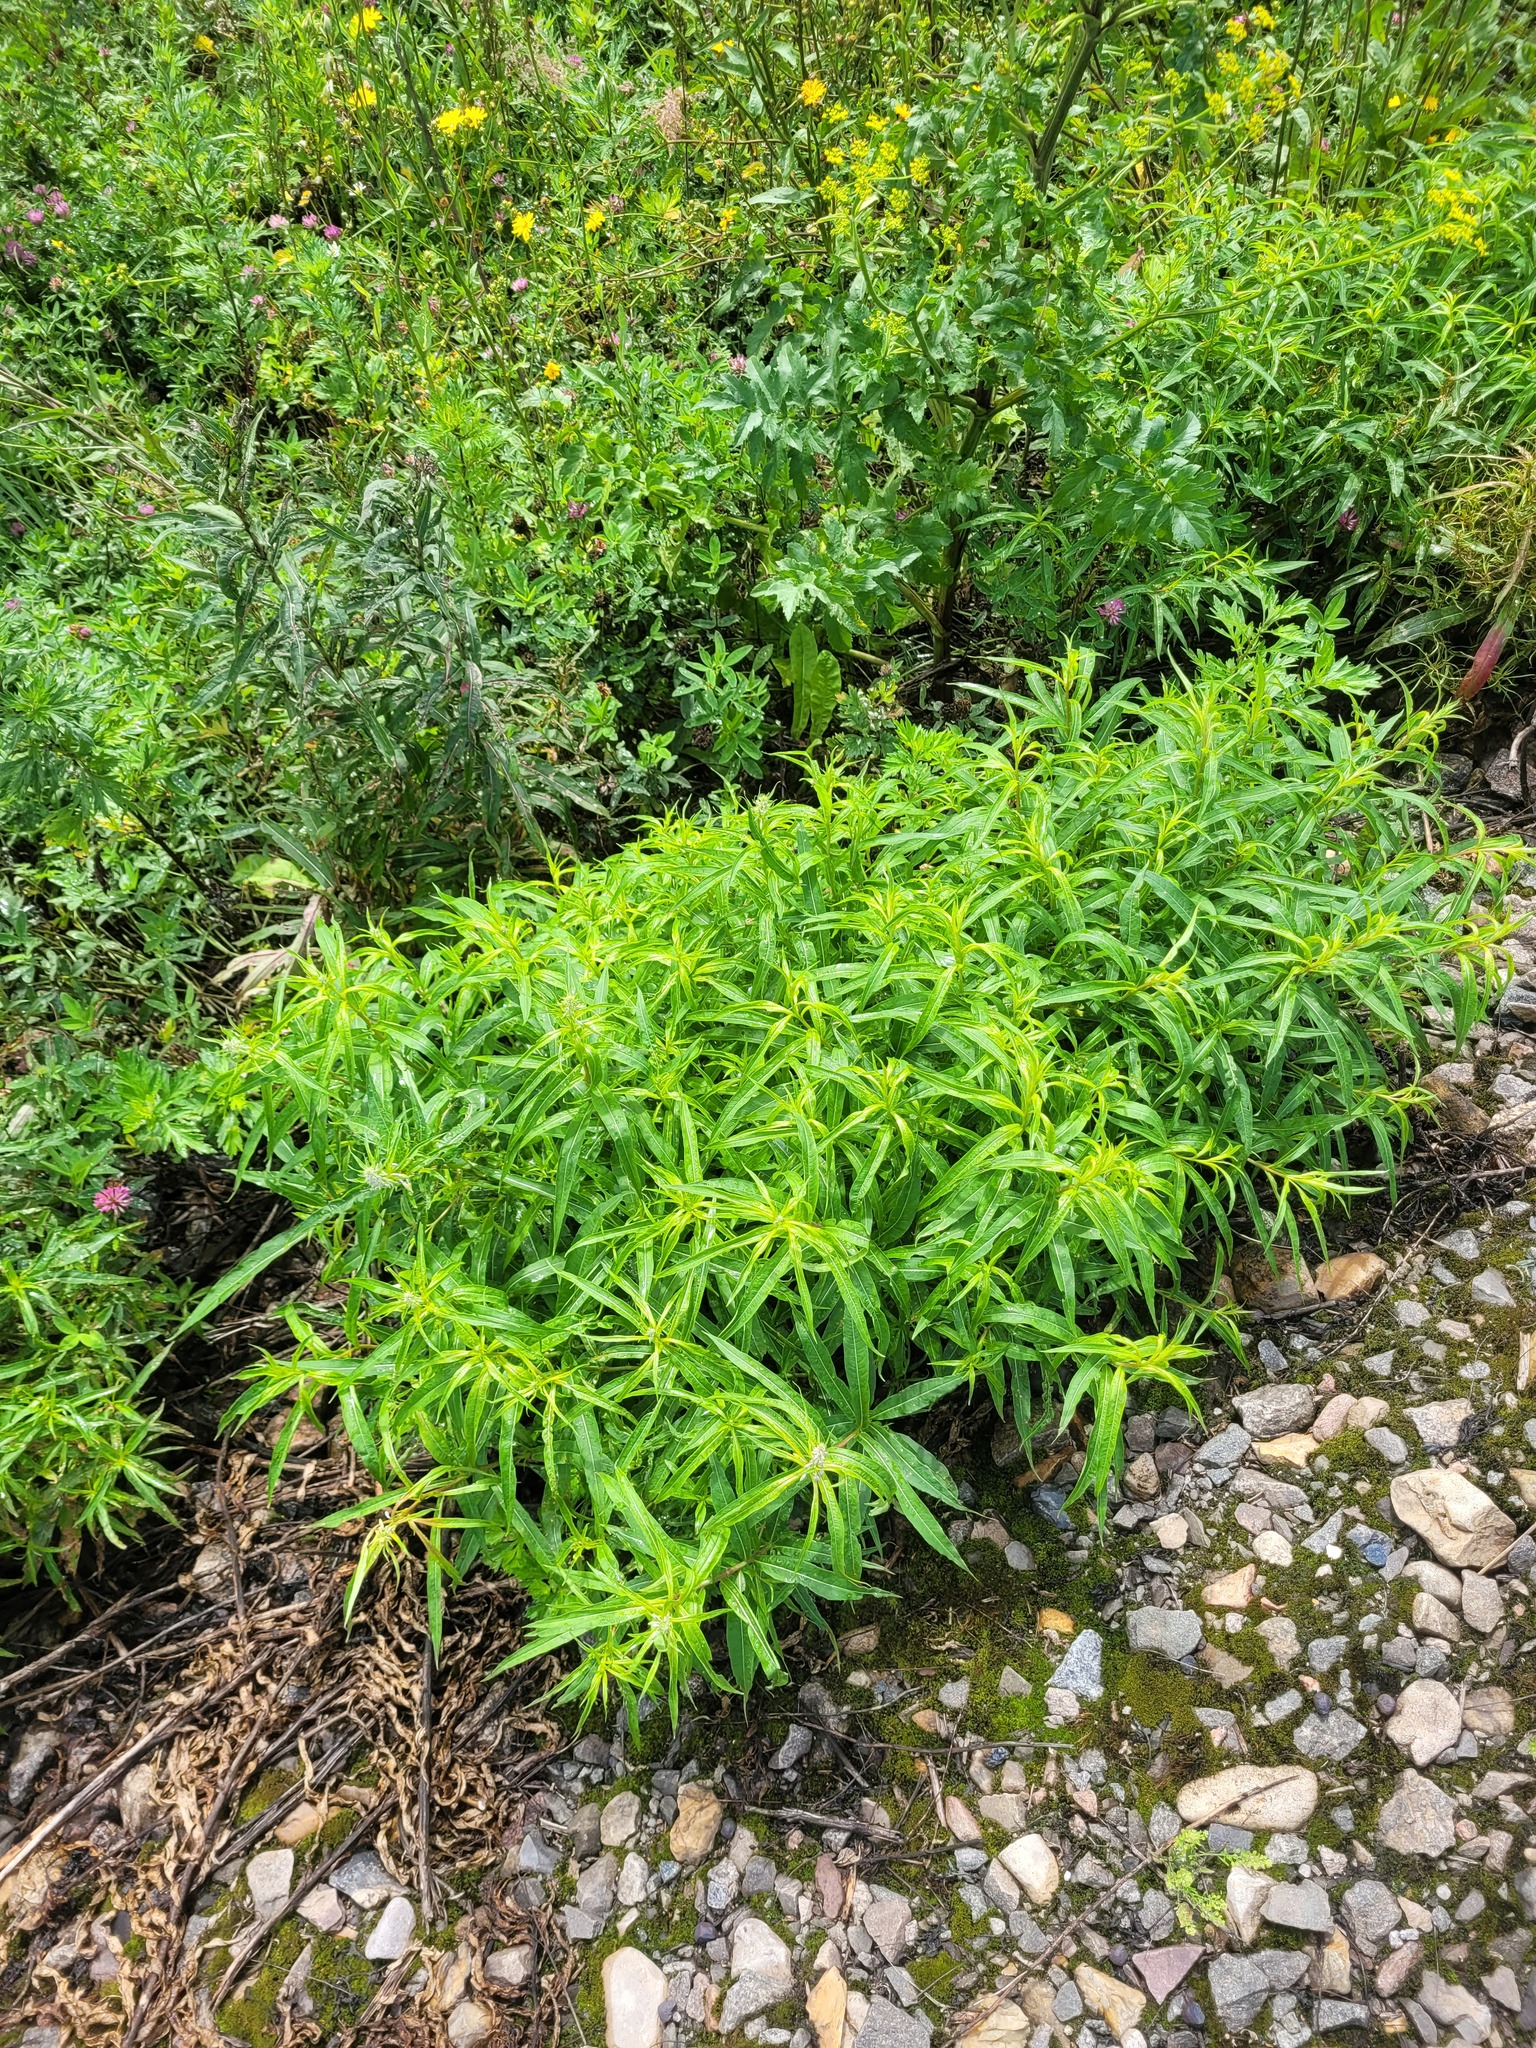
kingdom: Plantae
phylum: Tracheophyta
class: Magnoliopsida
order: Myrtales
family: Onagraceae
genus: Chamaenerion
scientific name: Chamaenerion angustifolium
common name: Fireweed
